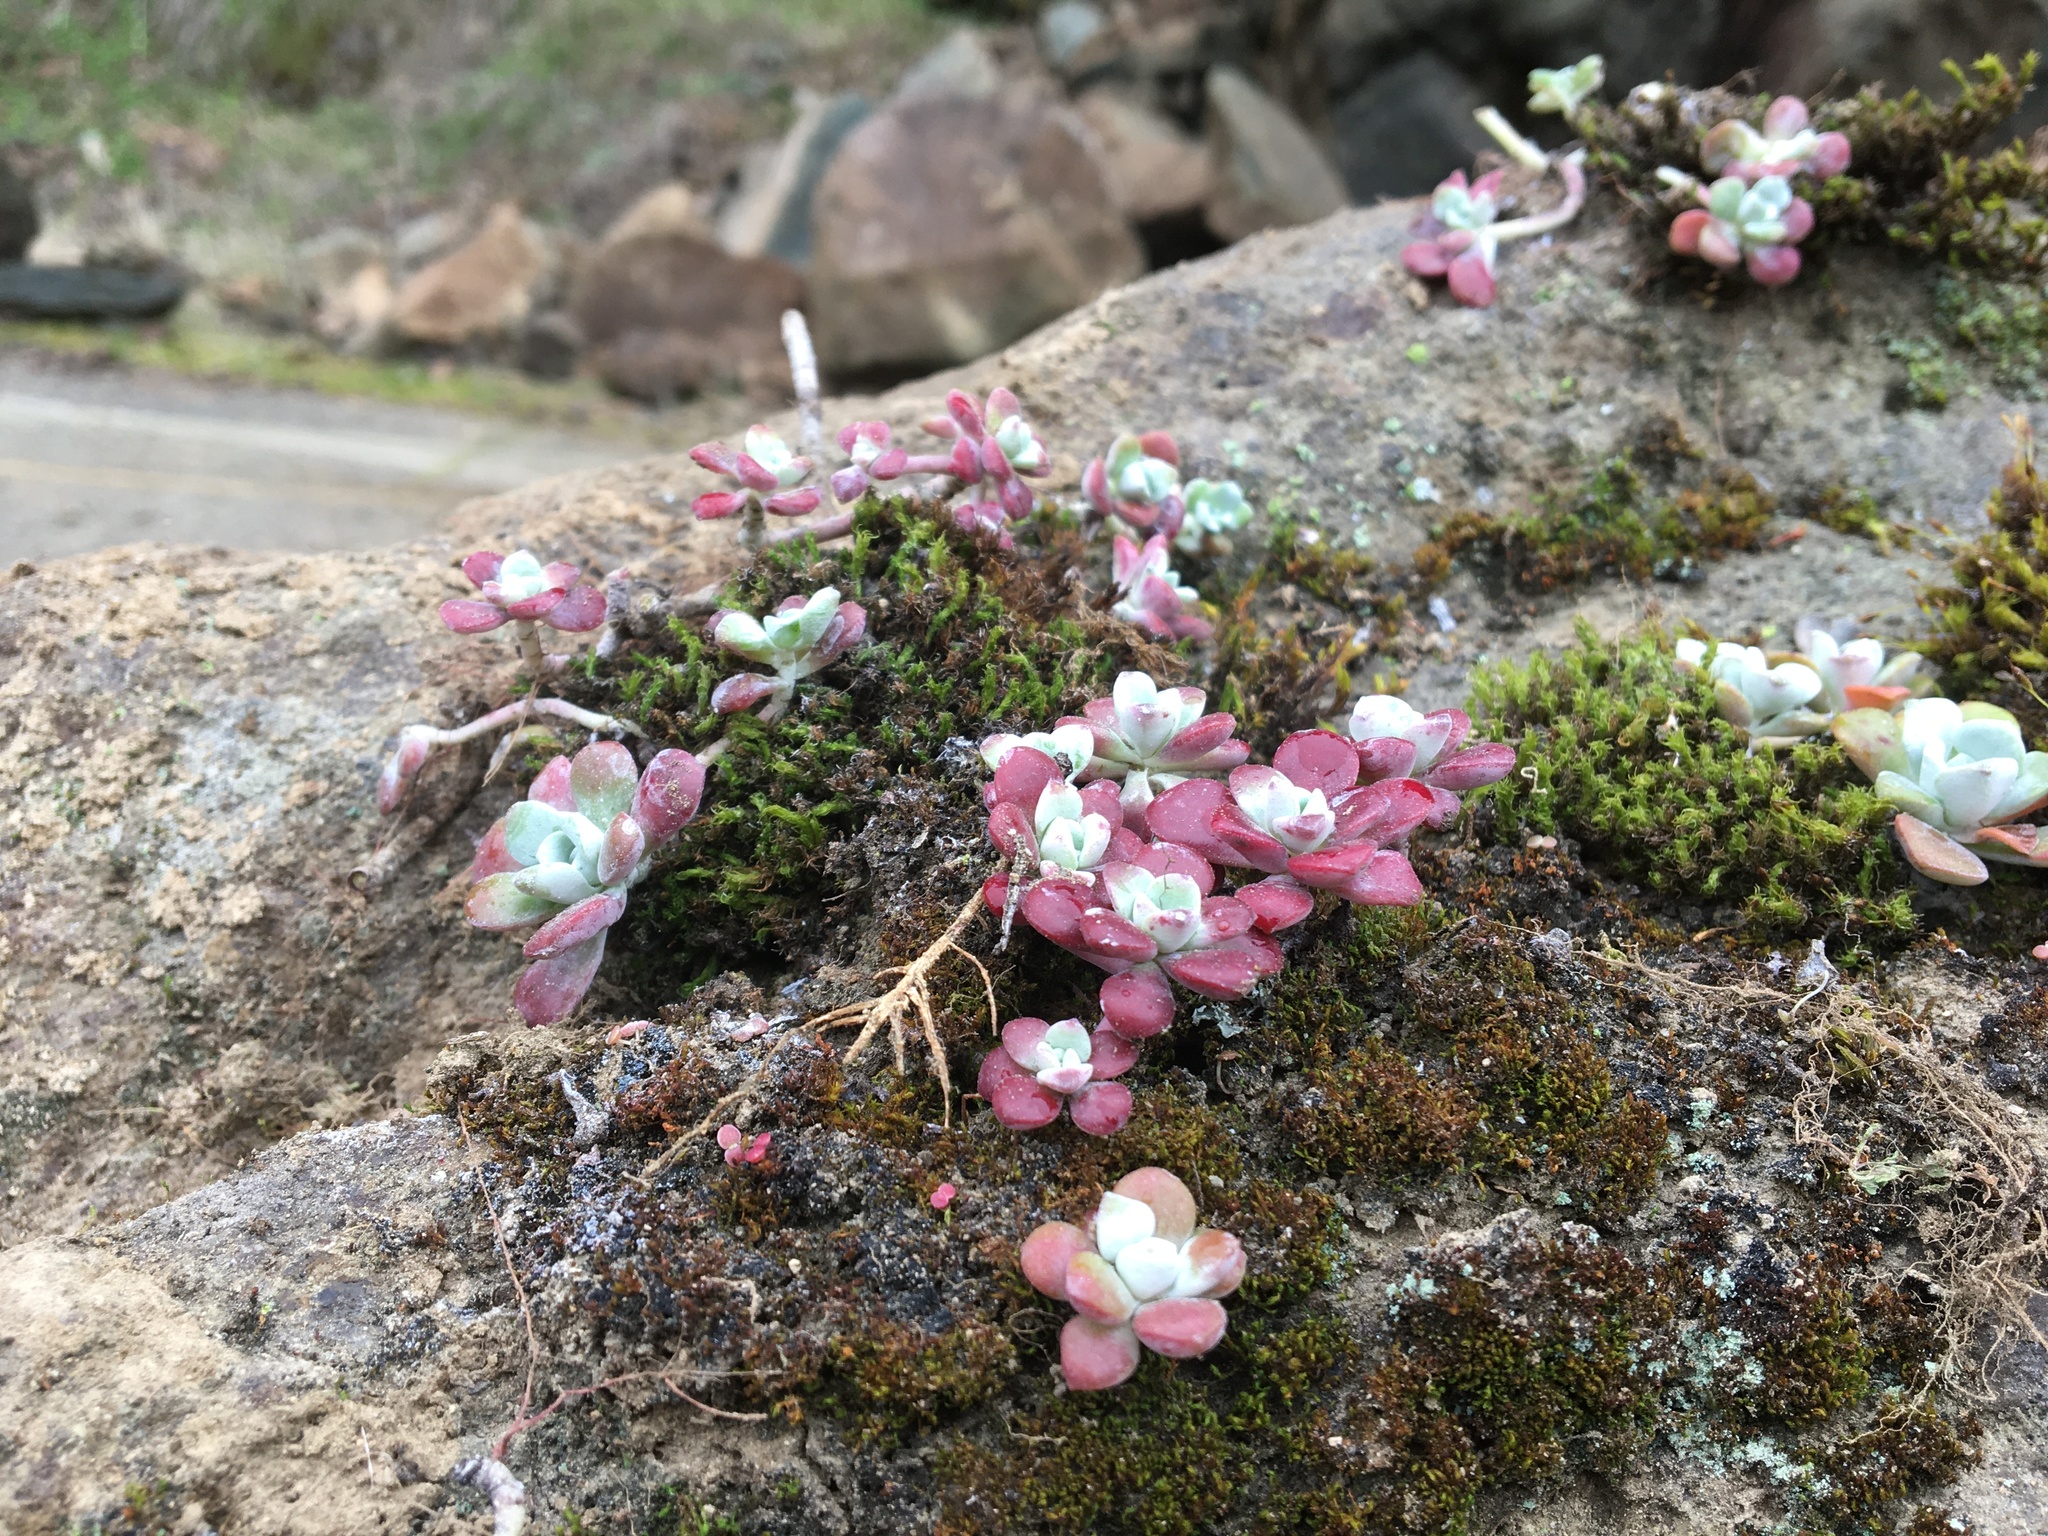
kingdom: Plantae
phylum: Tracheophyta
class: Magnoliopsida
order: Saxifragales
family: Crassulaceae
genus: Sedum
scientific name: Sedum spathulifolium
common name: Colorado stonecrop
